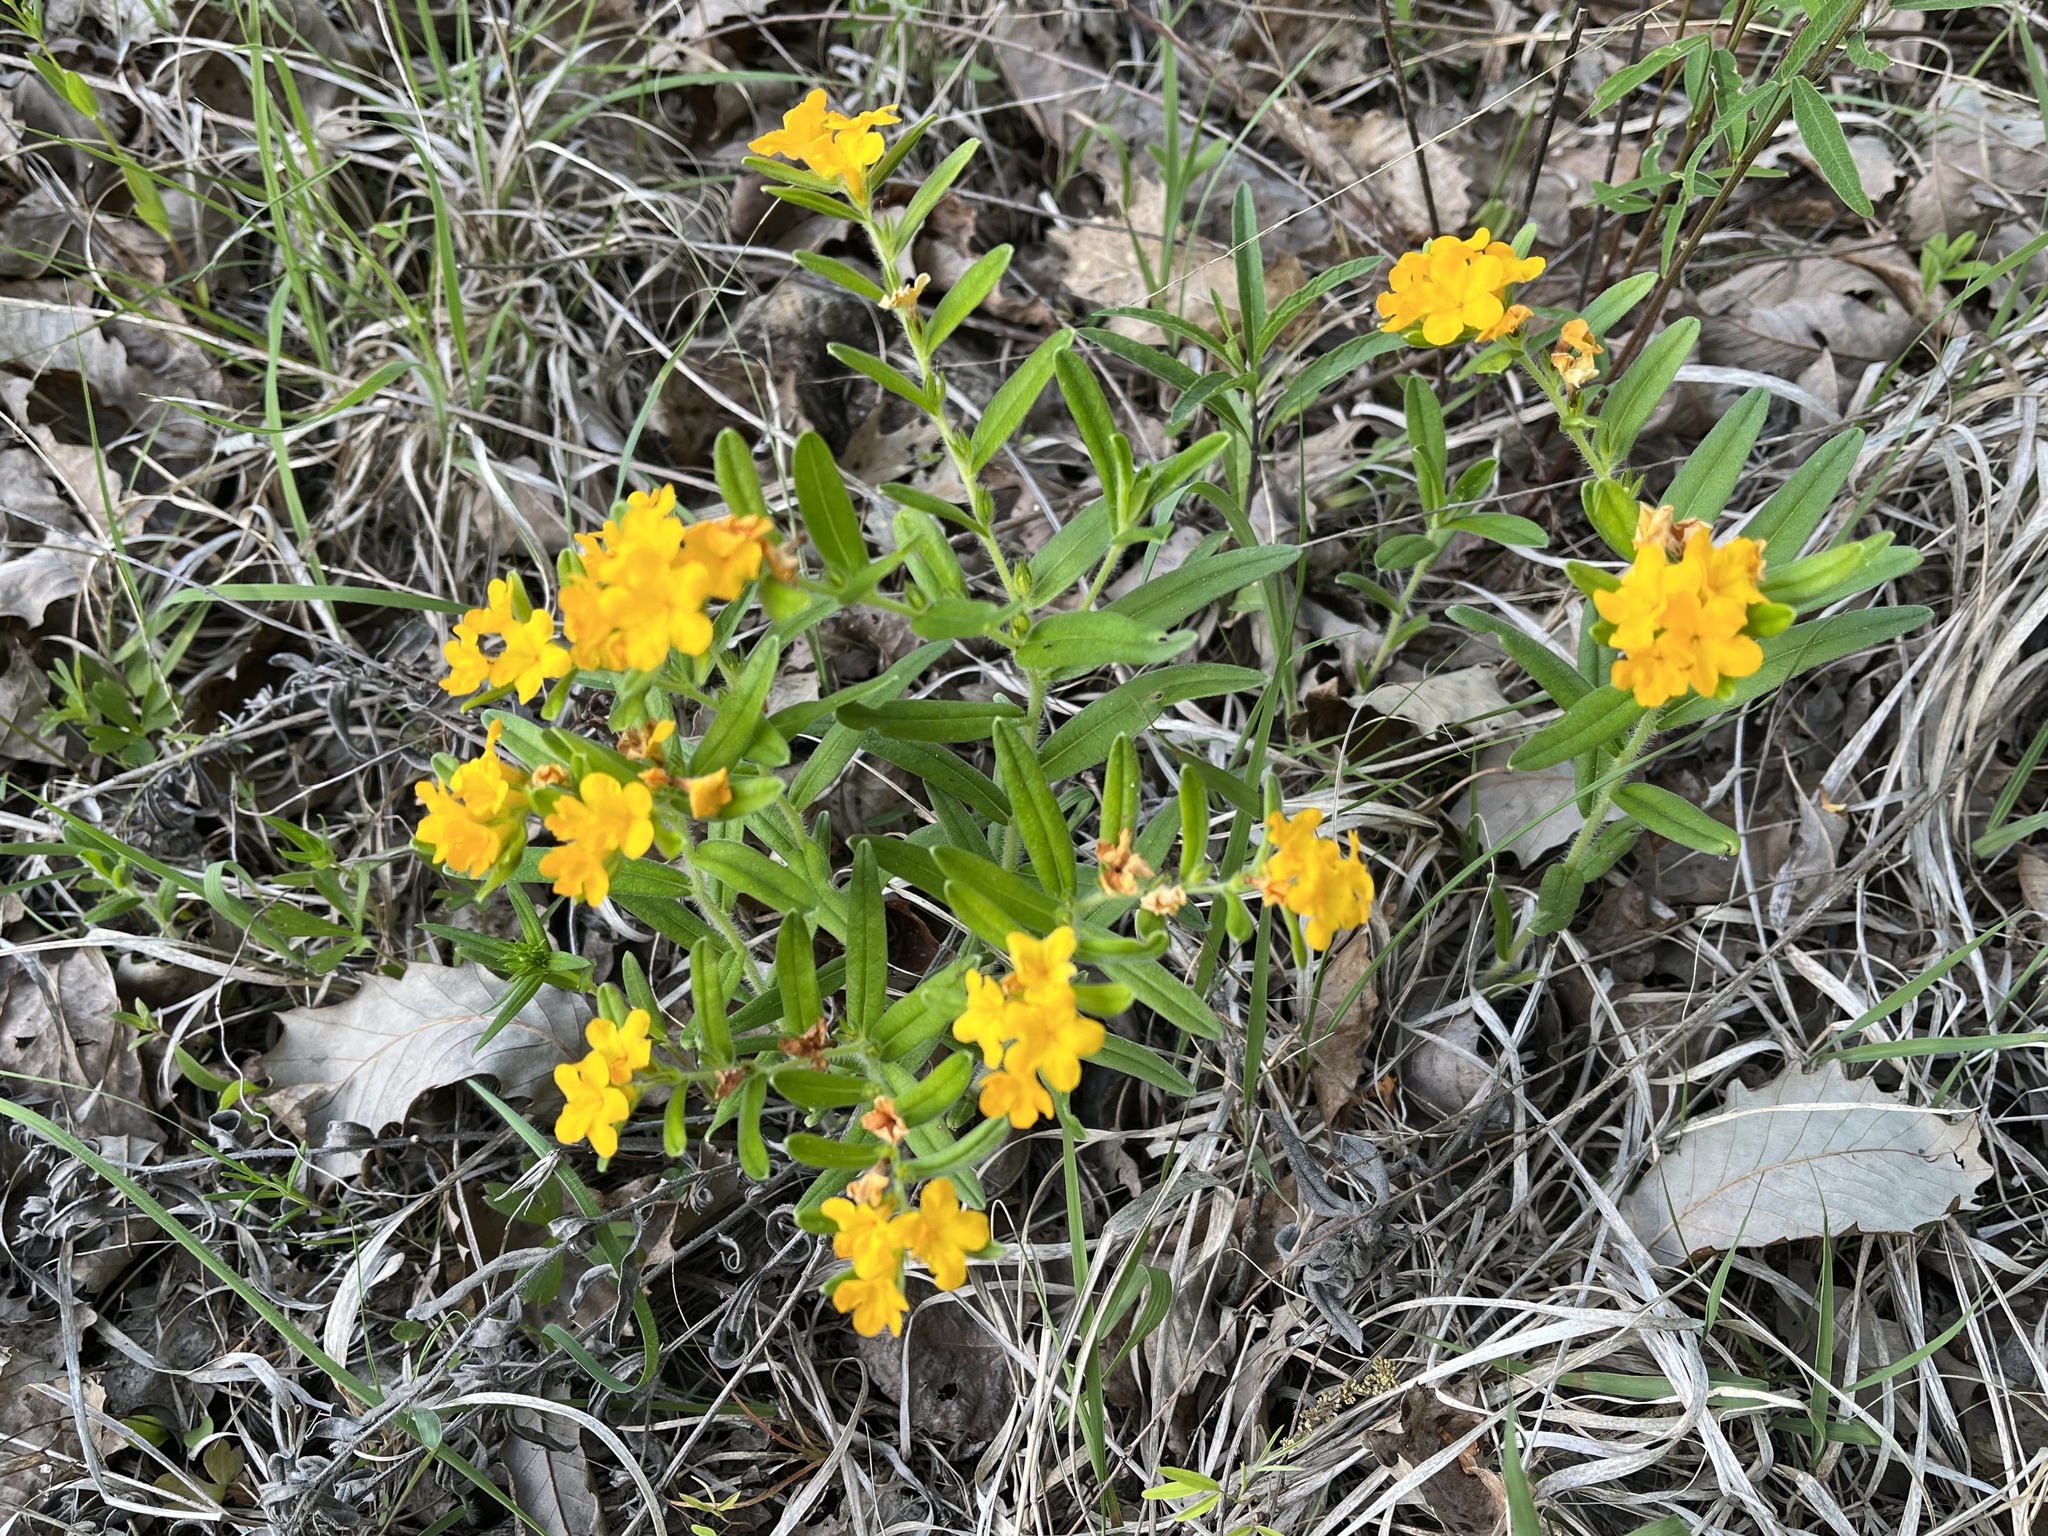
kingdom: Plantae
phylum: Tracheophyta
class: Magnoliopsida
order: Boraginales
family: Boraginaceae
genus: Lithospermum
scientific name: Lithospermum canescens
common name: Hoary puccoon
